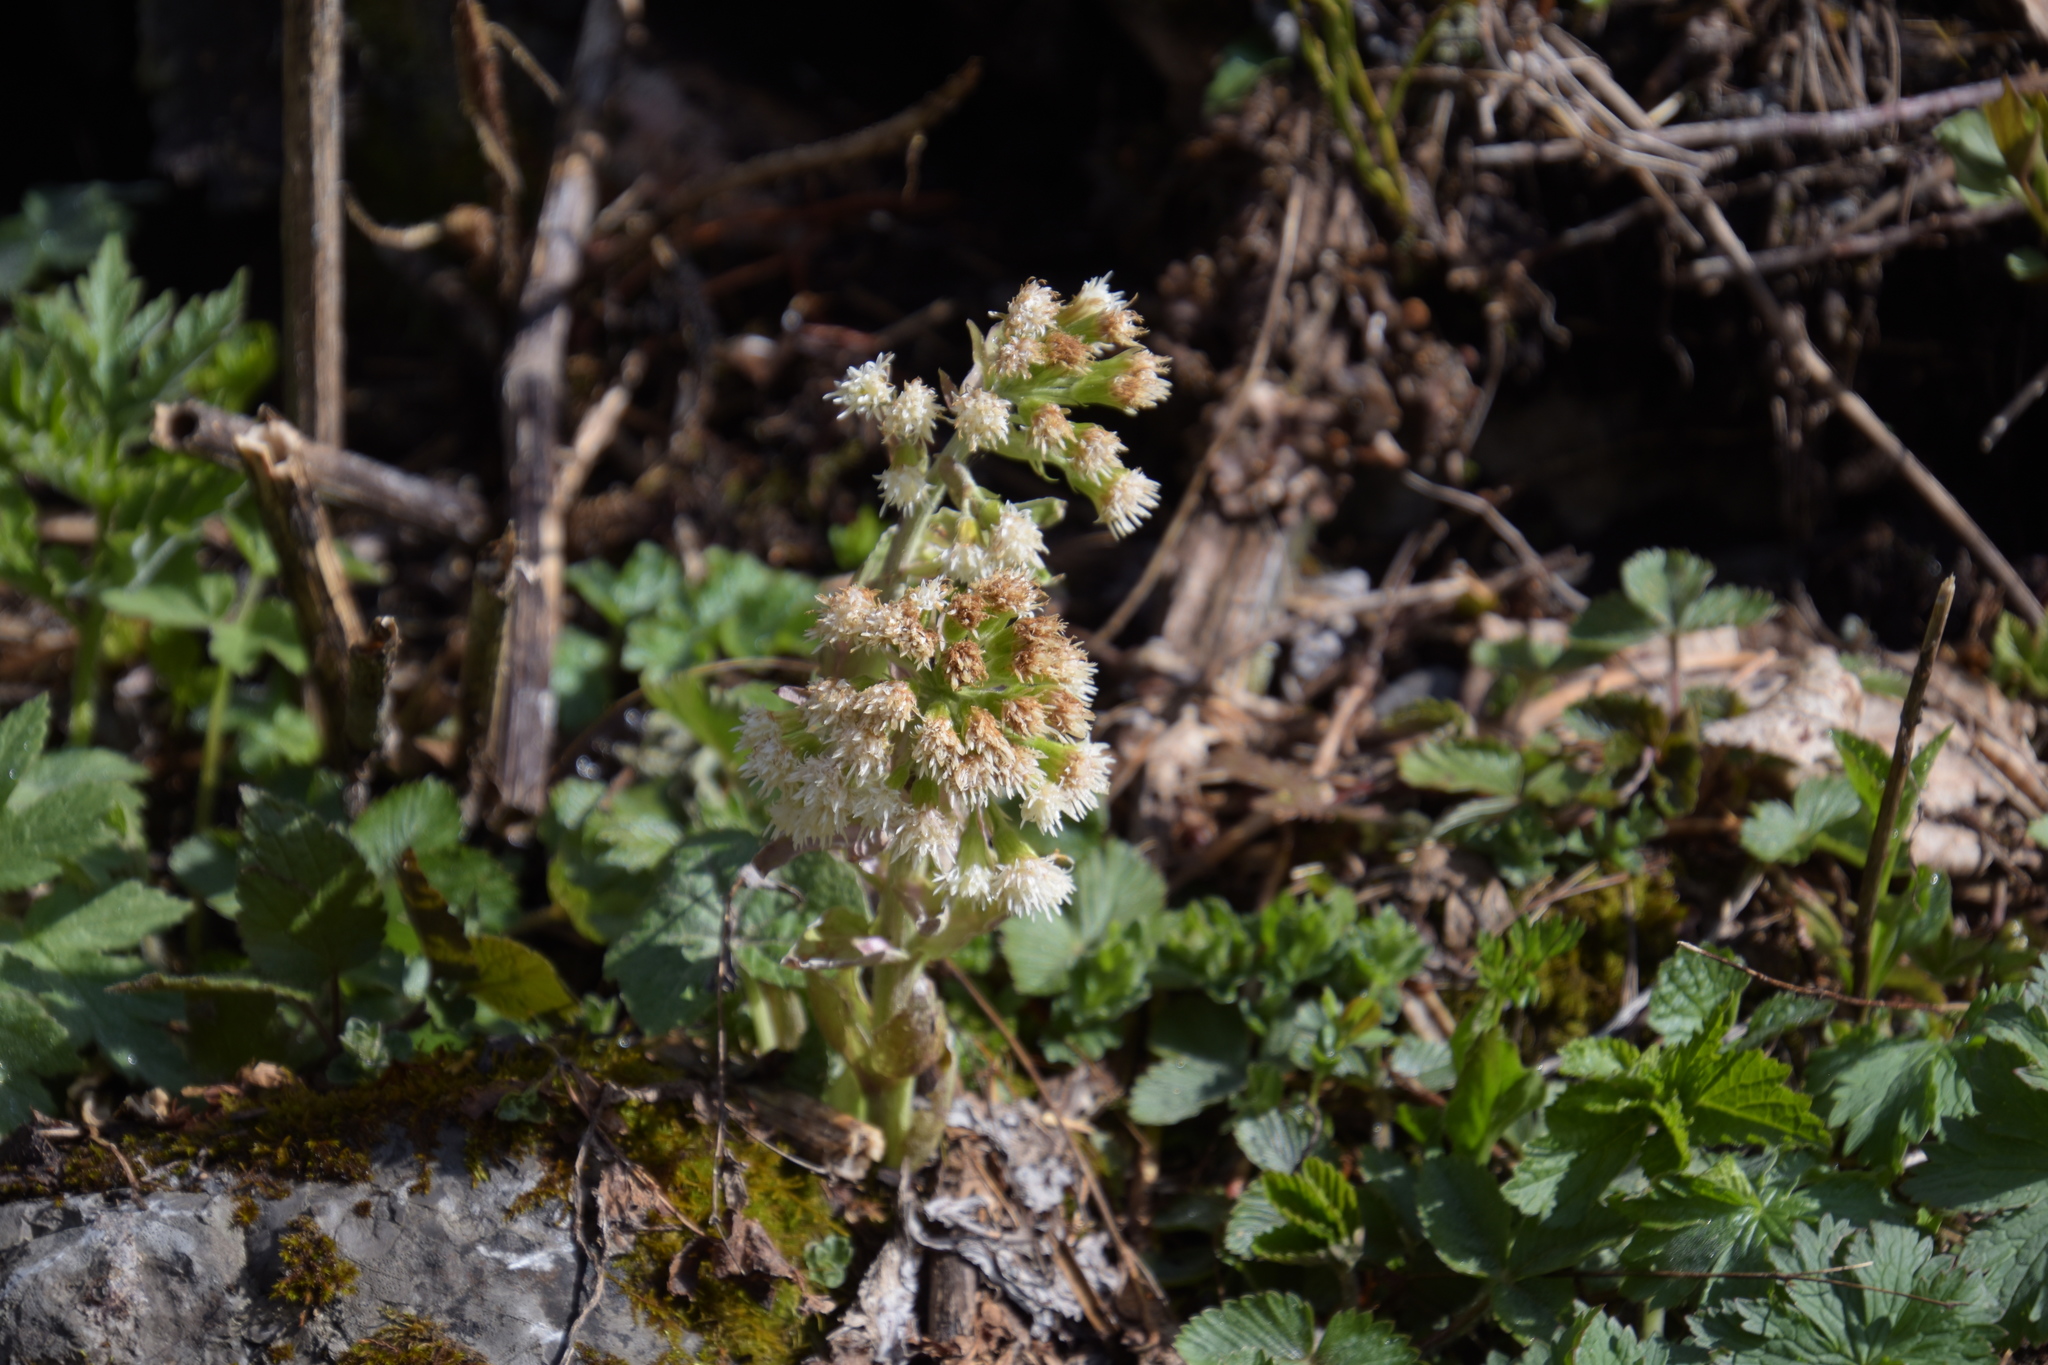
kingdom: Plantae
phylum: Tracheophyta
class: Magnoliopsida
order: Asterales
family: Asteraceae
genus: Petasites
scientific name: Petasites albus
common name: White butterbur
